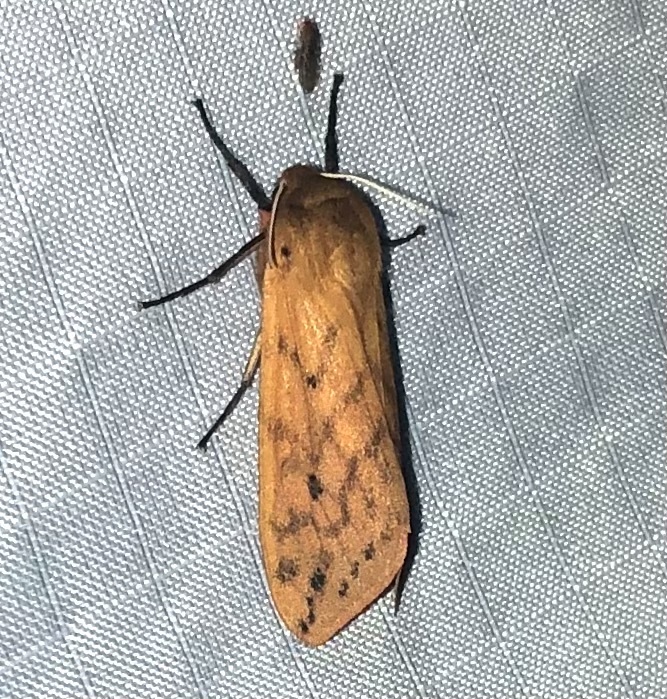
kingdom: Animalia
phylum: Arthropoda
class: Insecta
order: Lepidoptera
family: Erebidae
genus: Pyrrharctia
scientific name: Pyrrharctia isabella
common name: Isabella tiger moth
